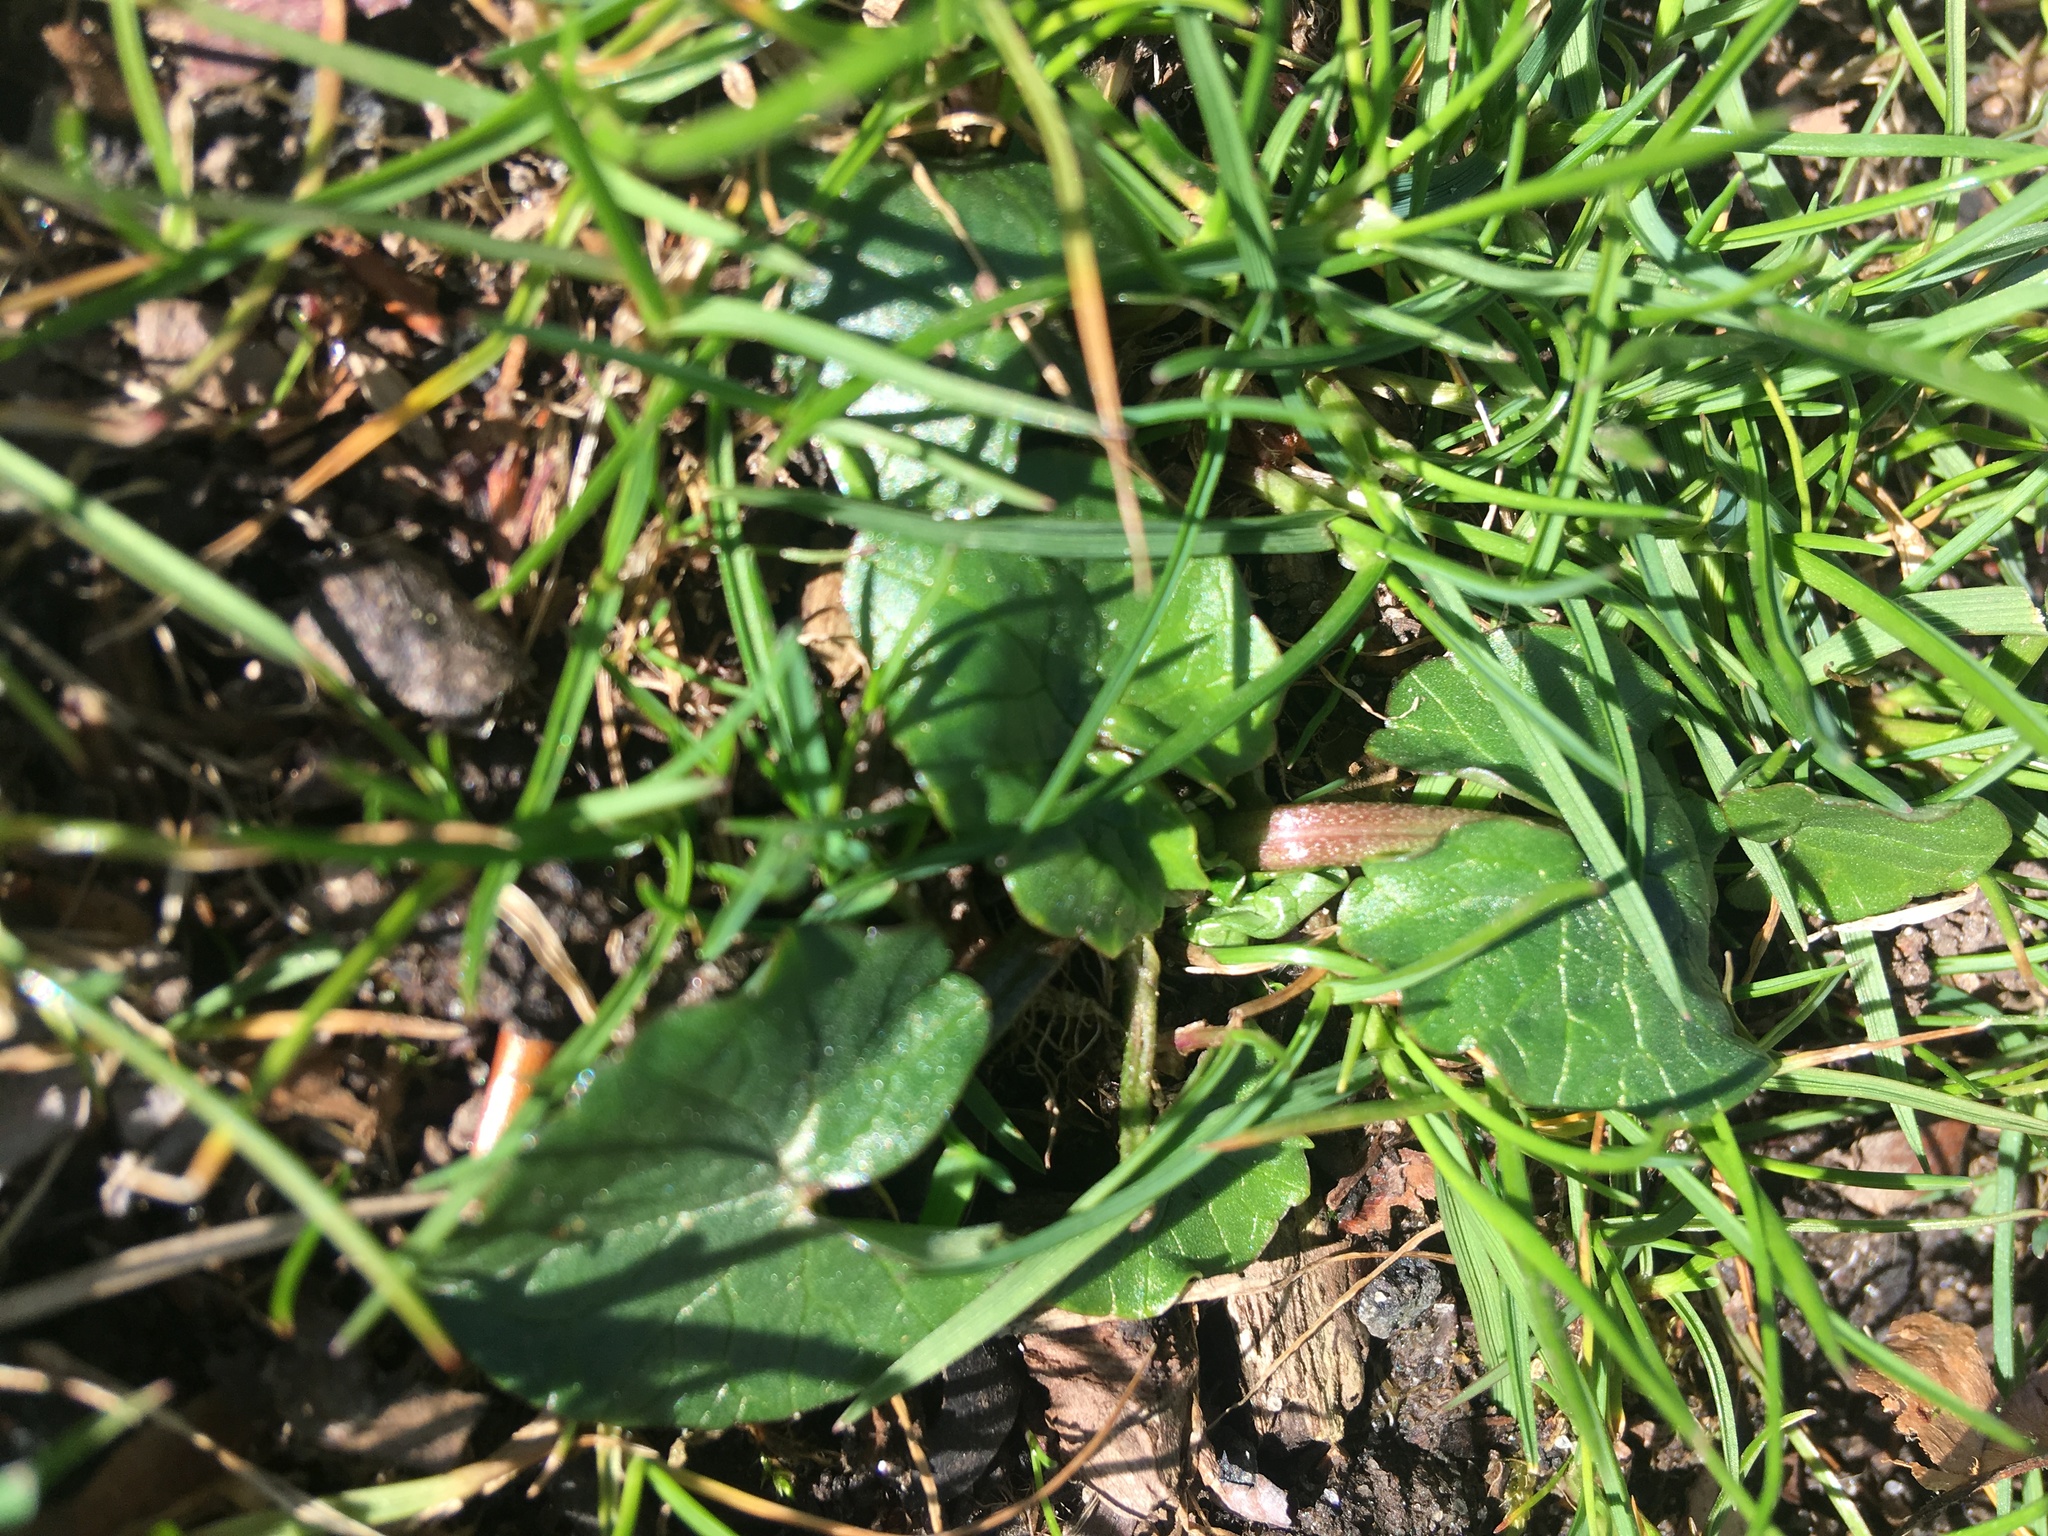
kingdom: Plantae
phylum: Tracheophyta
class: Magnoliopsida
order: Ranunculales
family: Ranunculaceae
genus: Ficaria
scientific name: Ficaria verna
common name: Lesser celandine
